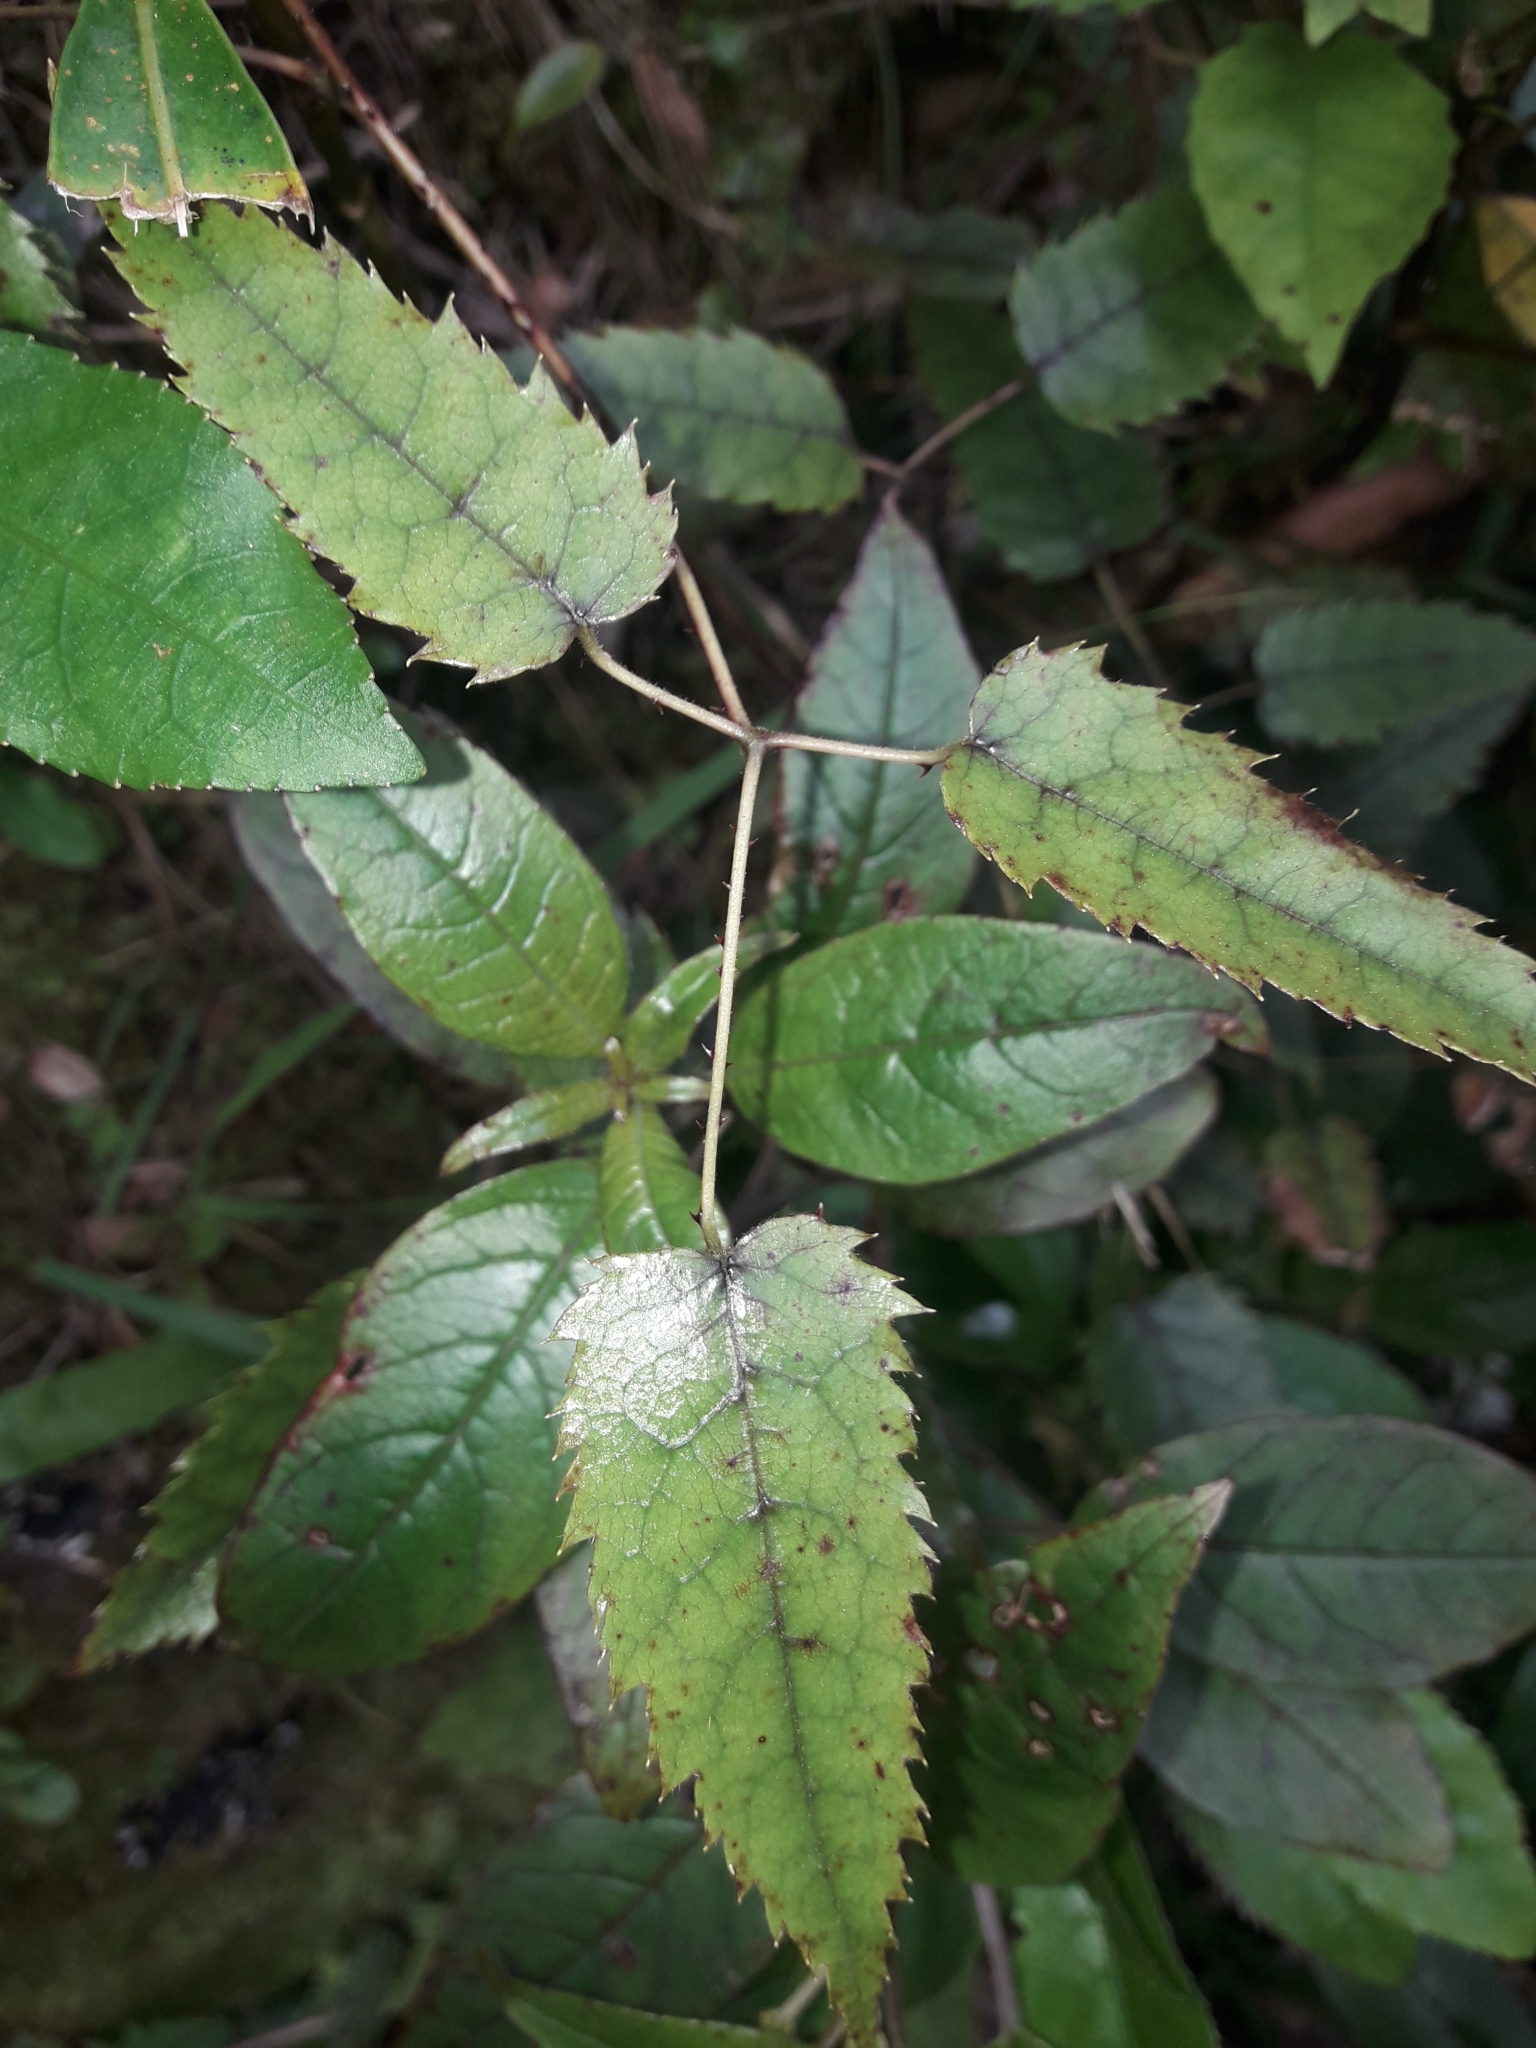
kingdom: Plantae
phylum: Tracheophyta
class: Magnoliopsida
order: Rosales
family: Rosaceae
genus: Rubus
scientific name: Rubus cissoides
